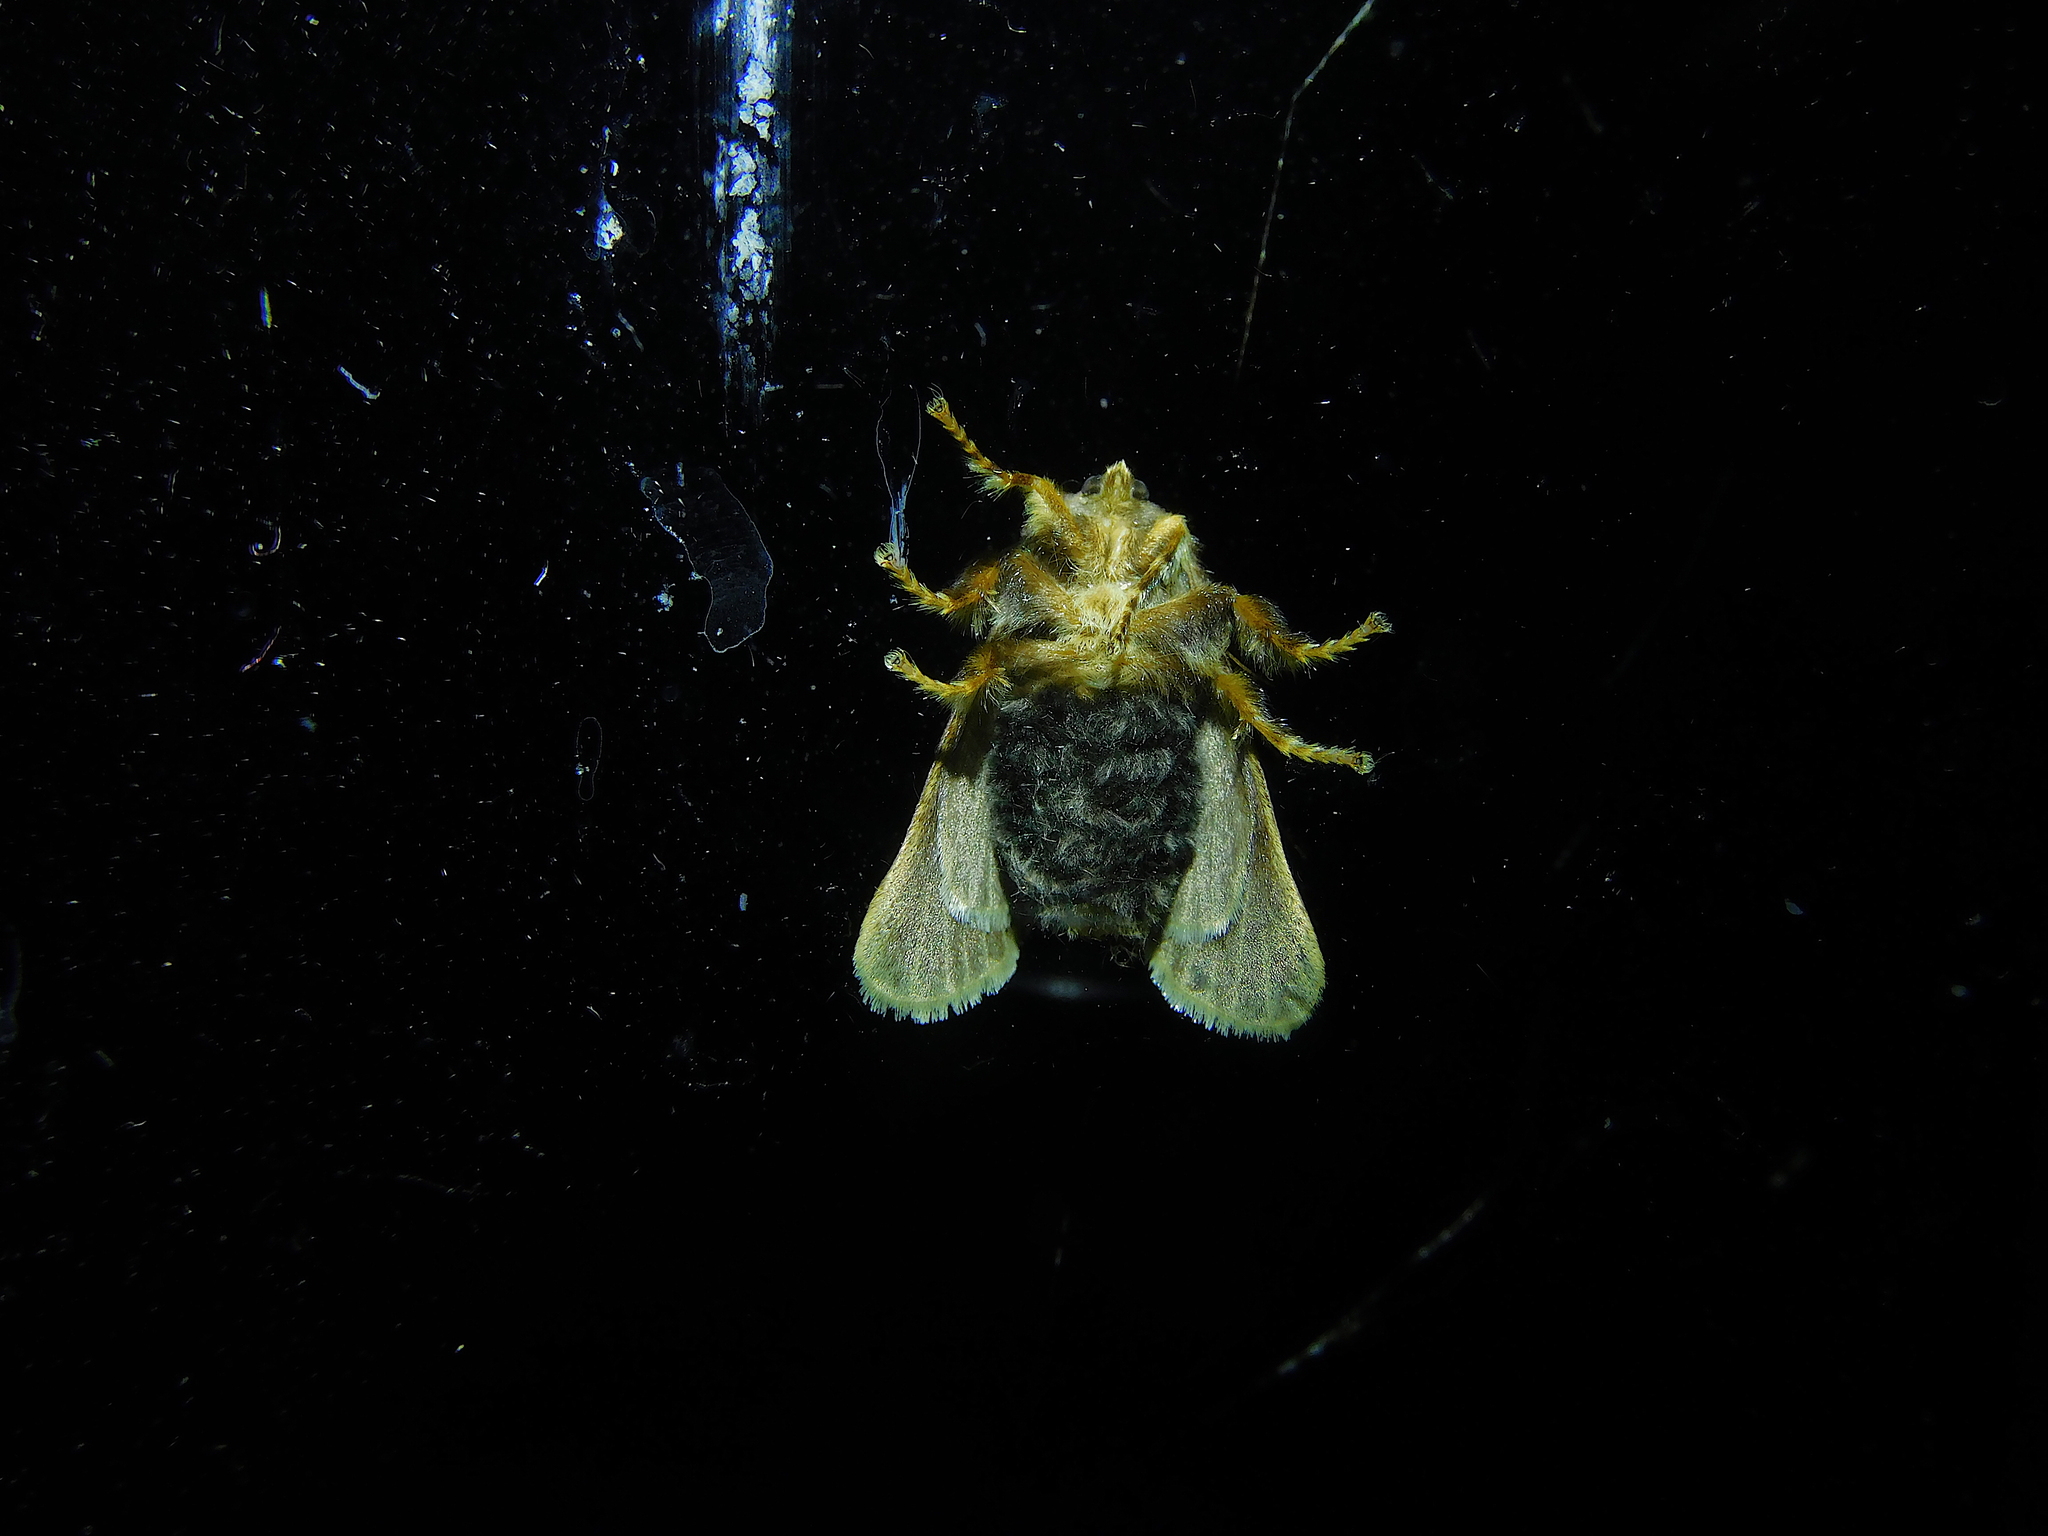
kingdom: Animalia
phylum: Arthropoda
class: Insecta
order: Lepidoptera
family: Limacodidae
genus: Doratifera
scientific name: Doratifera oxleyi
